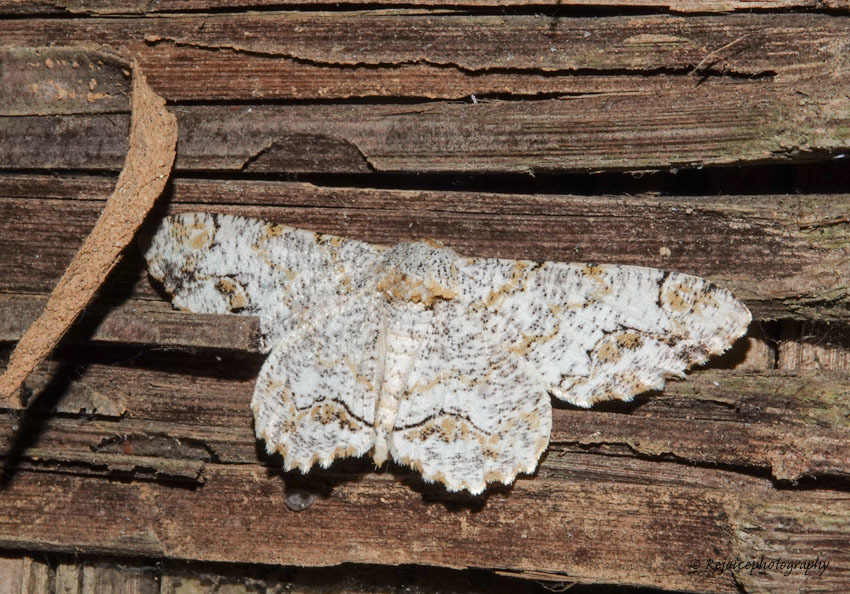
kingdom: Animalia
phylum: Arthropoda
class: Insecta
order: Lepidoptera
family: Geometridae
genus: Biston
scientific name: Biston suppressaria
